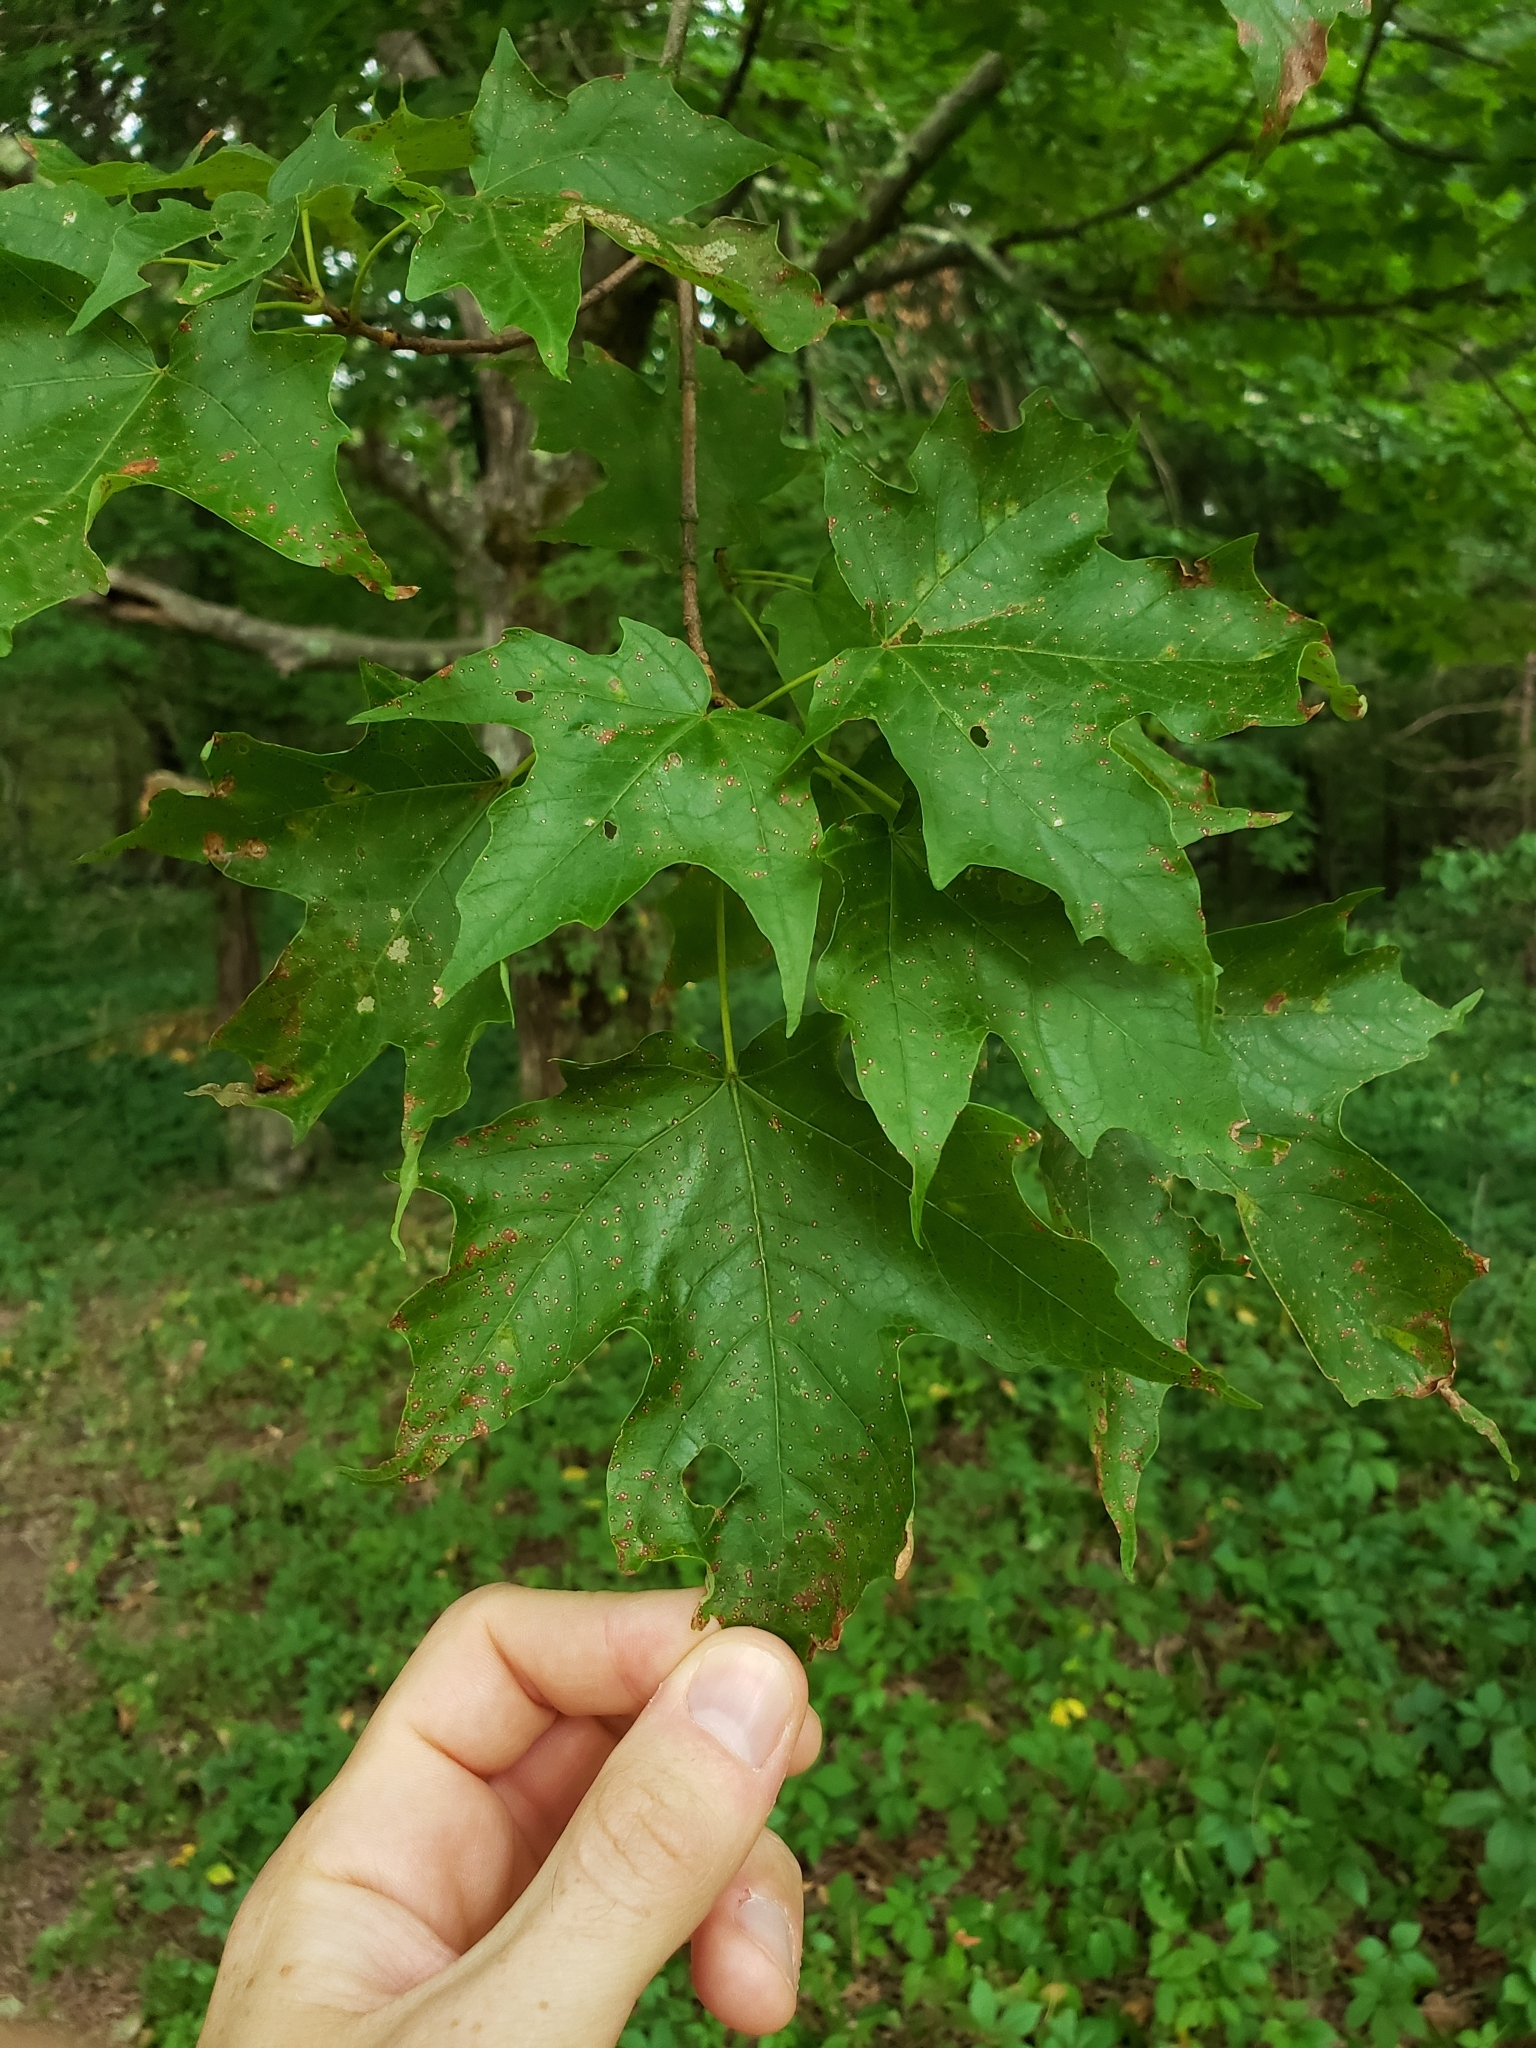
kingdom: Plantae
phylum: Tracheophyta
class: Magnoliopsida
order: Sapindales
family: Sapindaceae
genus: Acer
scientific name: Acer saccharum
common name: Sugar maple
